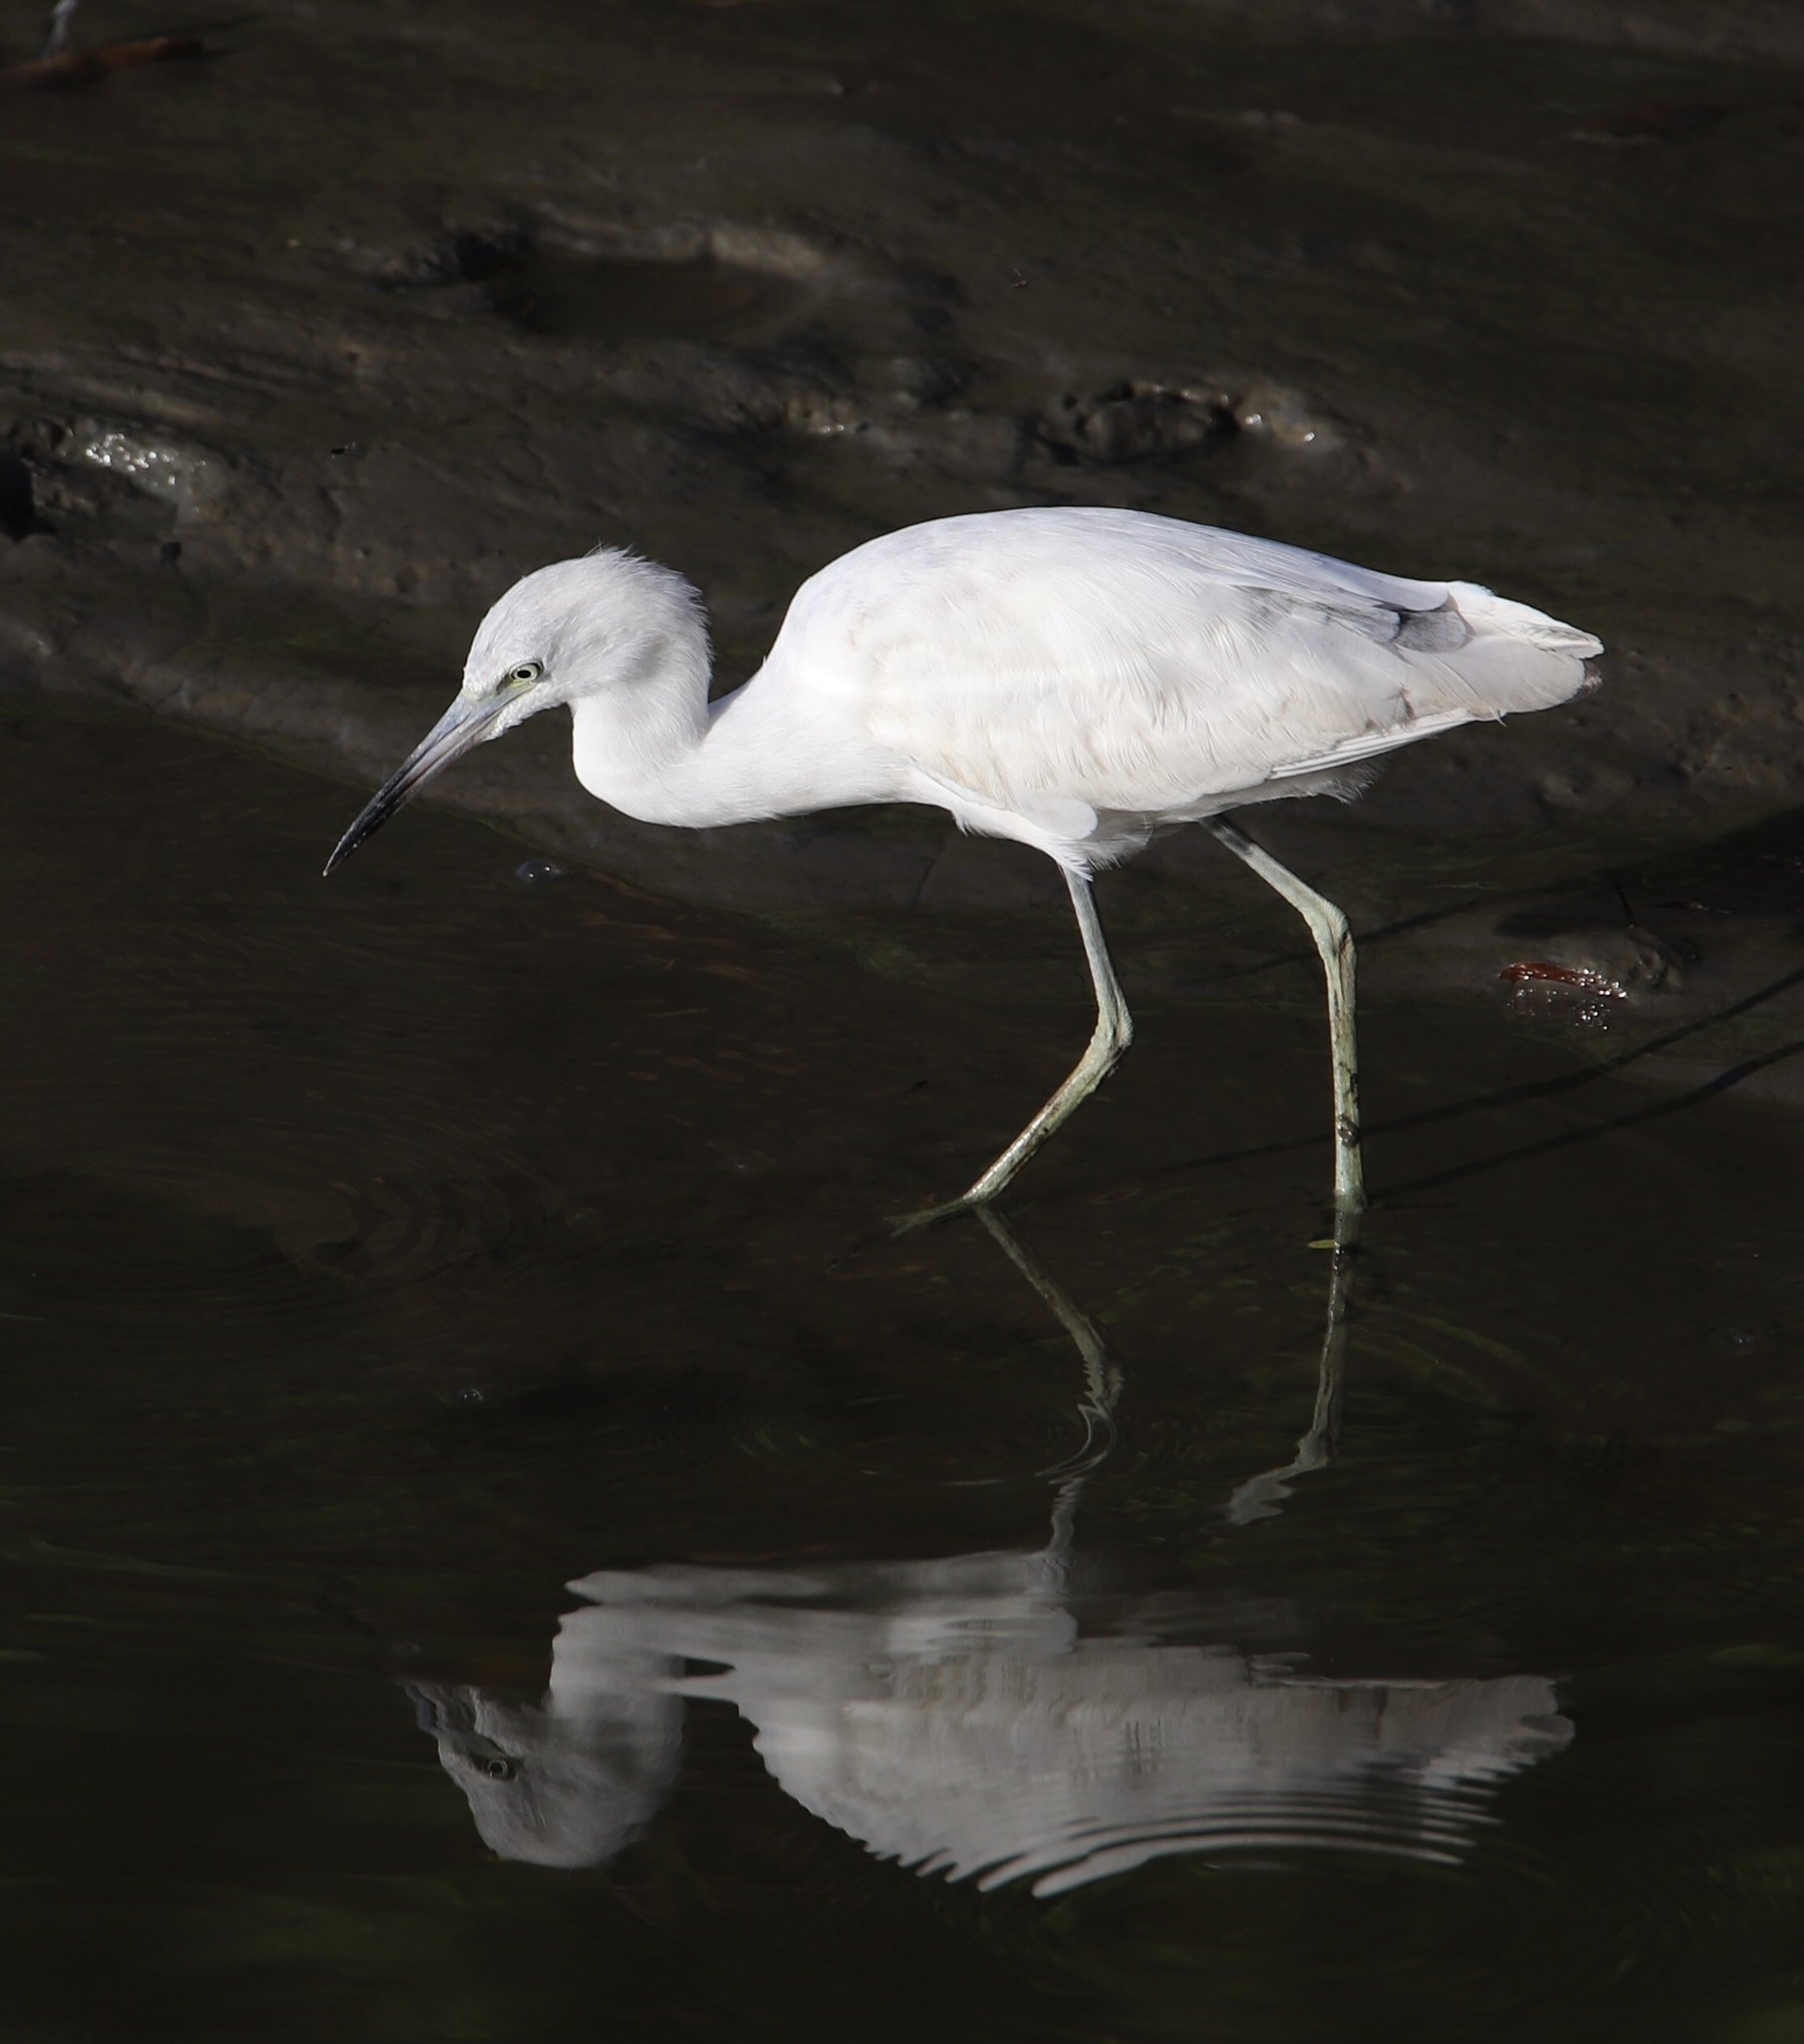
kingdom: Animalia
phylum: Chordata
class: Aves
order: Pelecaniformes
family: Ardeidae
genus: Egretta
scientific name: Egretta caerulea
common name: Little blue heron
